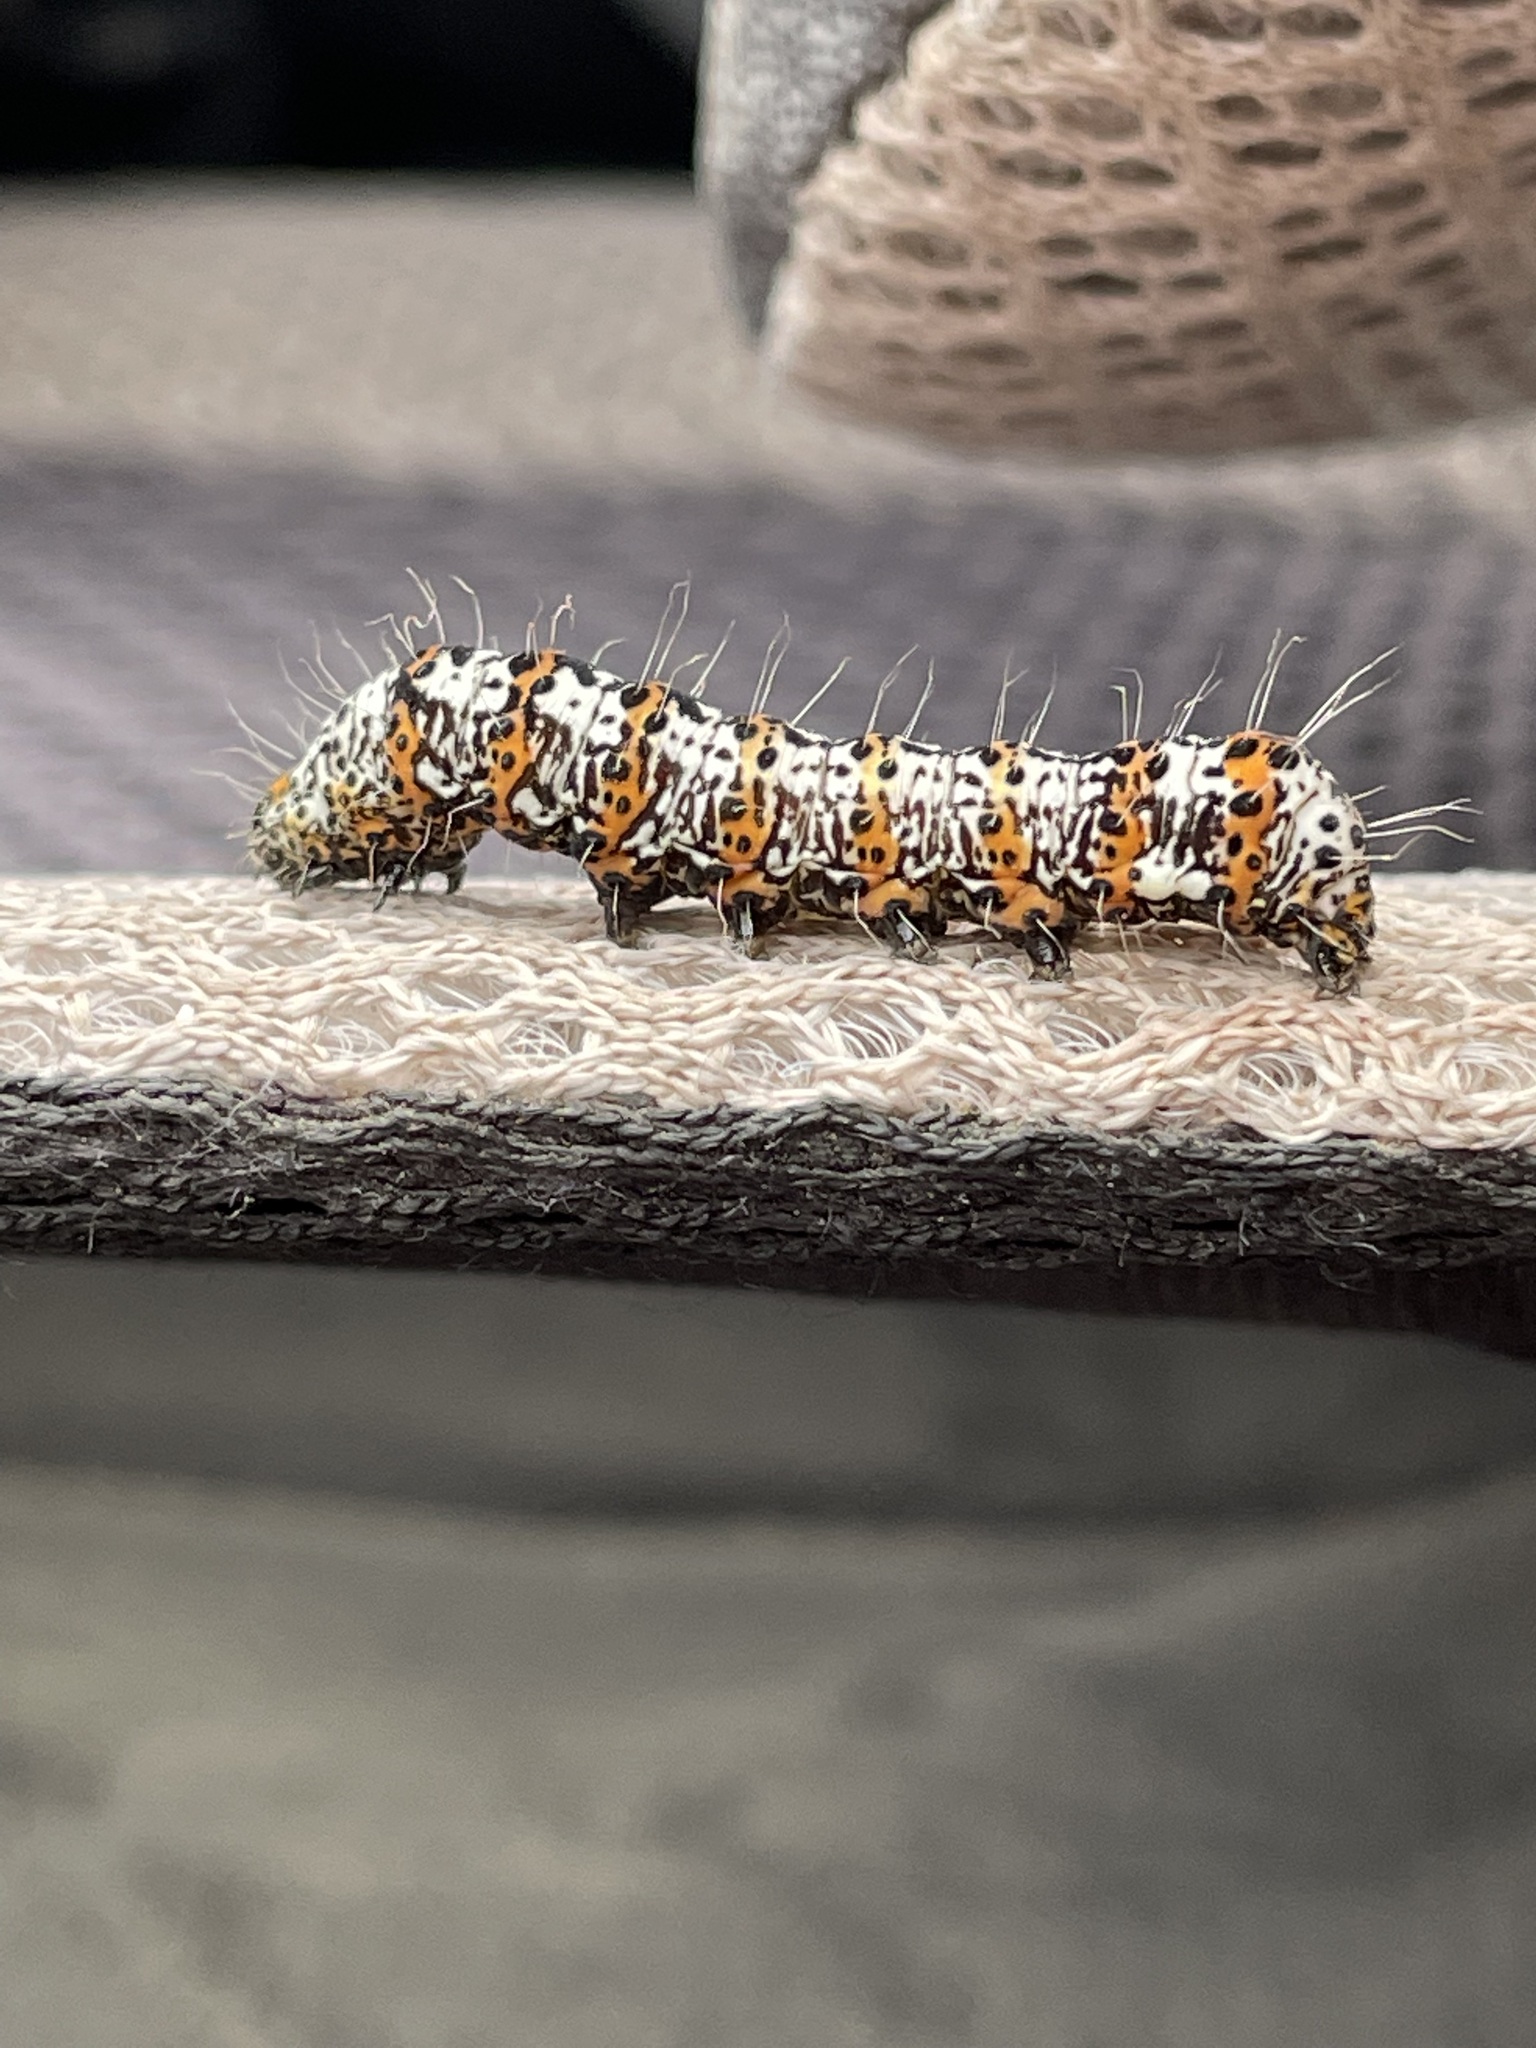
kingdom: Animalia
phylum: Arthropoda
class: Insecta
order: Lepidoptera
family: Noctuidae
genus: Alypia
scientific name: Alypia langtonii
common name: Fireweed caterpillar
